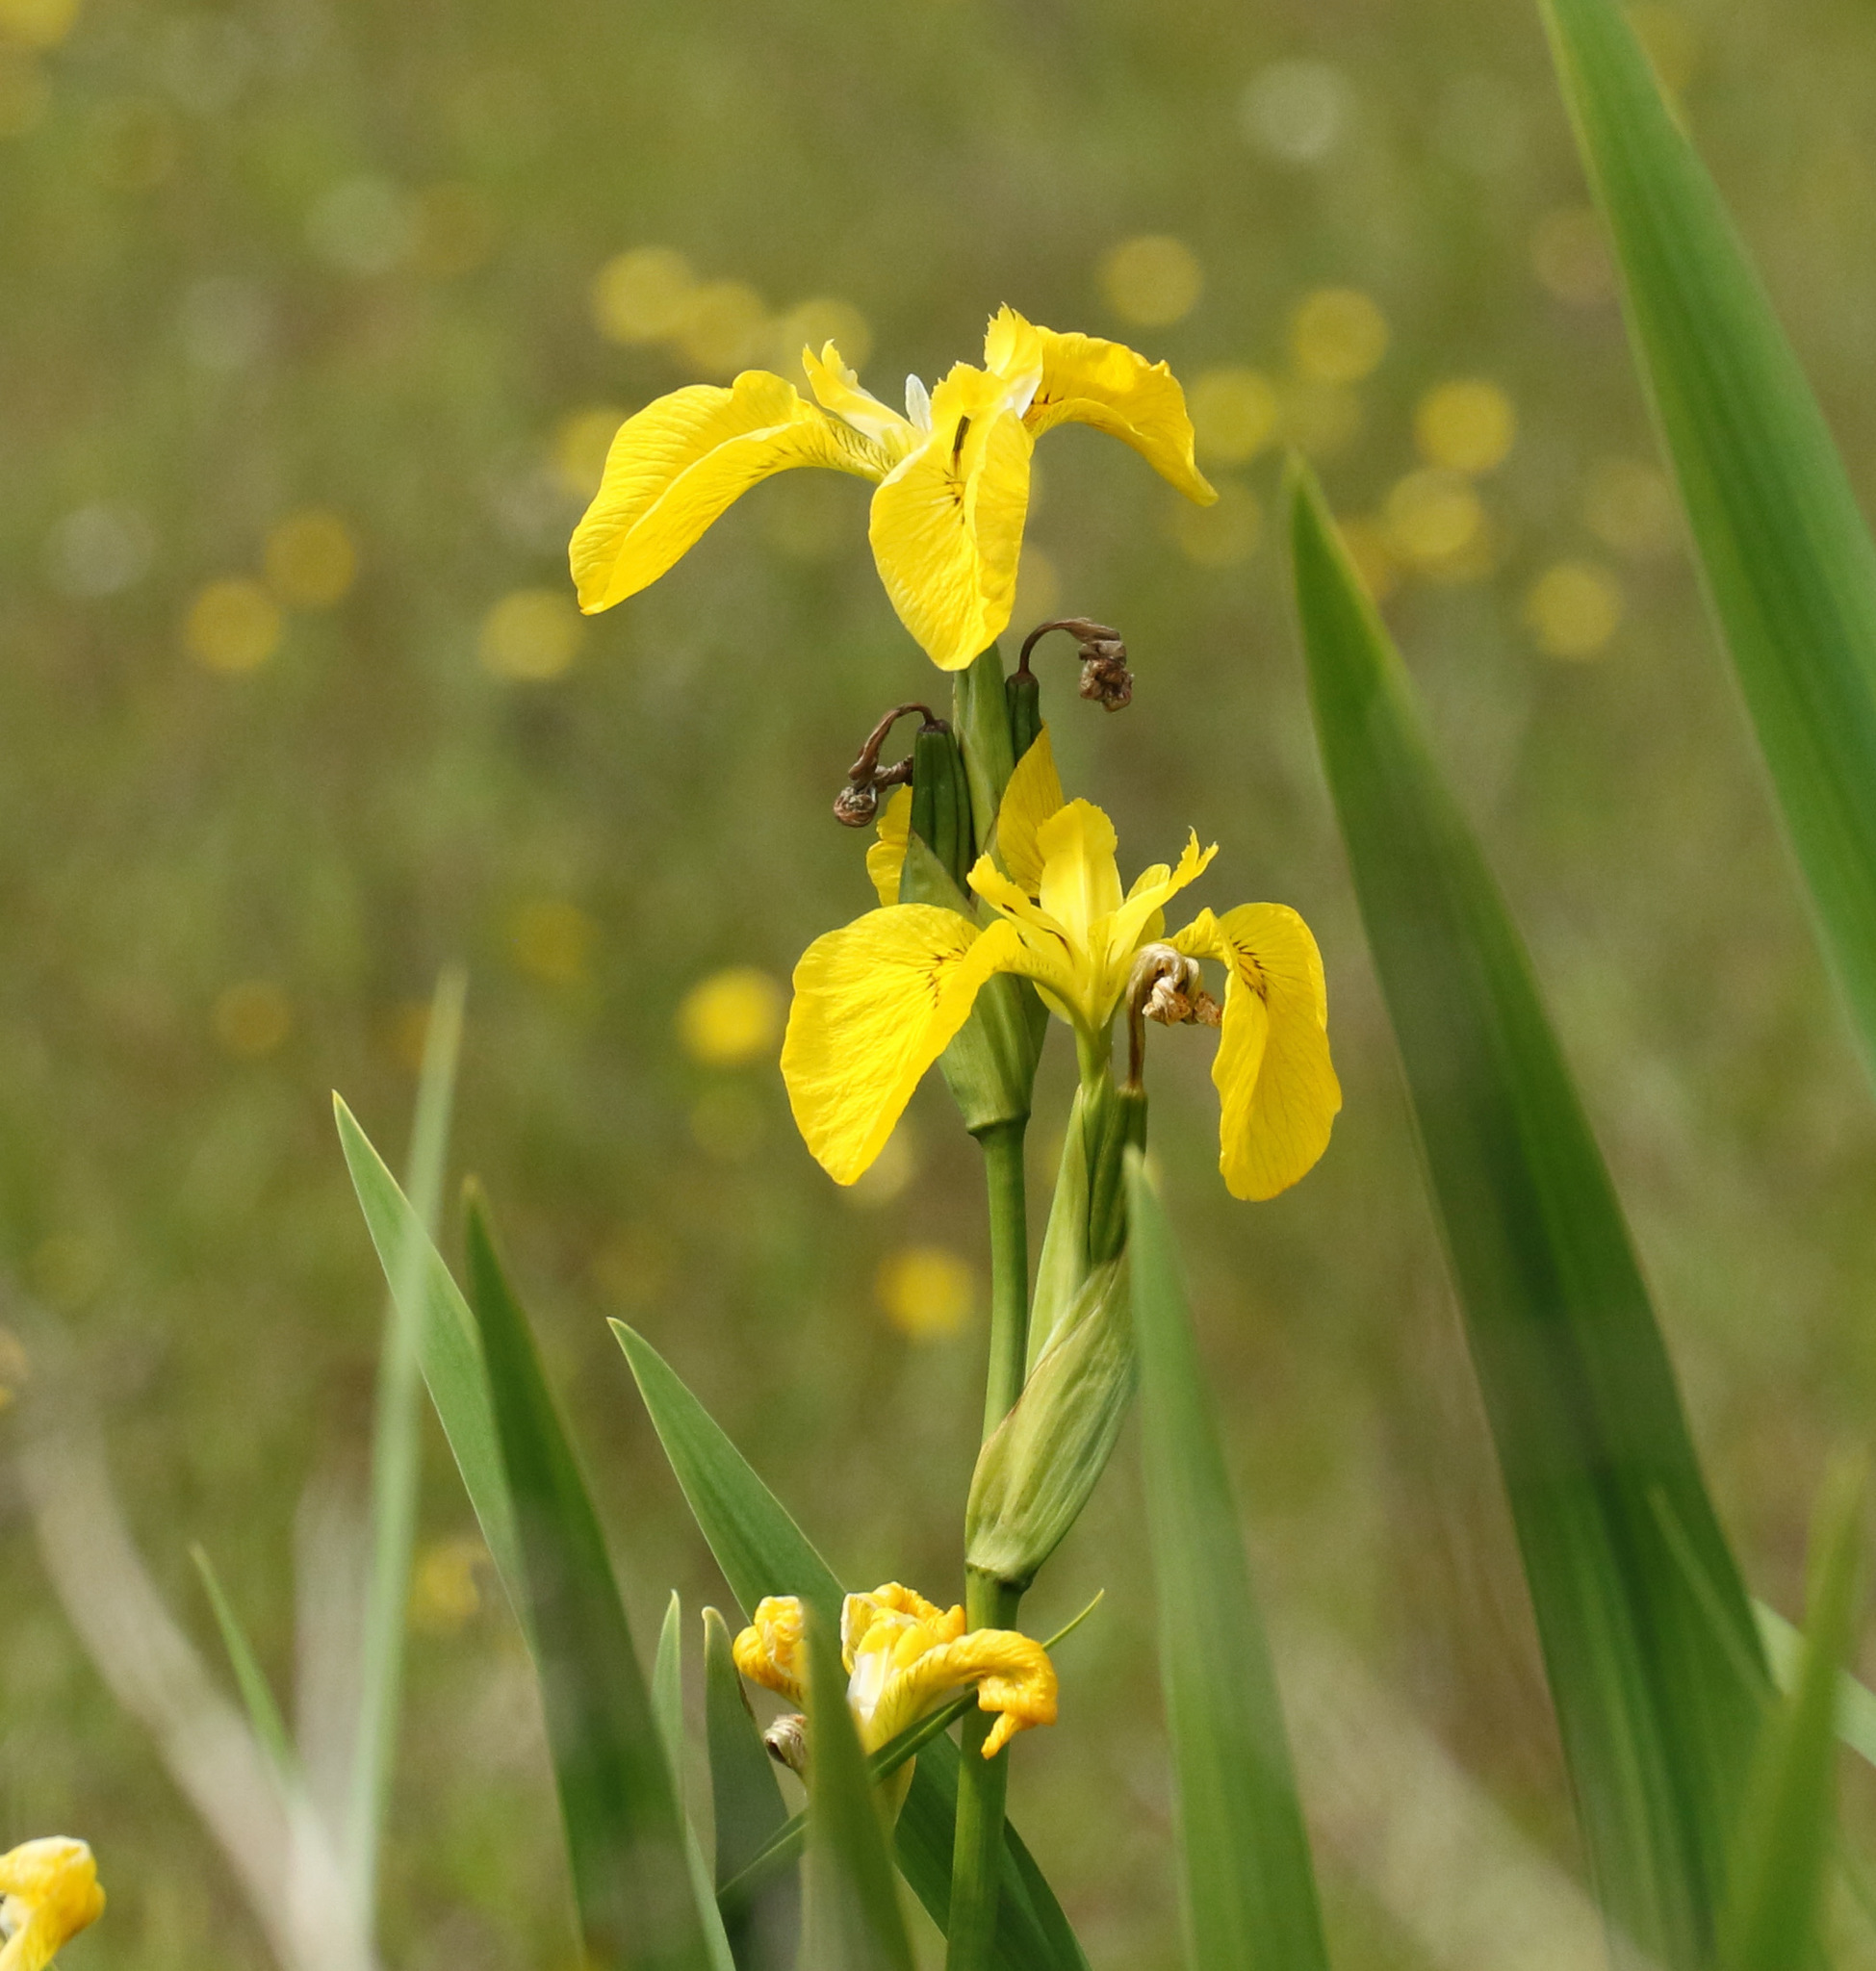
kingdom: Plantae
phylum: Tracheophyta
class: Liliopsida
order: Asparagales
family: Iridaceae
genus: Iris
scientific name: Iris pseudacorus
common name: Yellow flag
